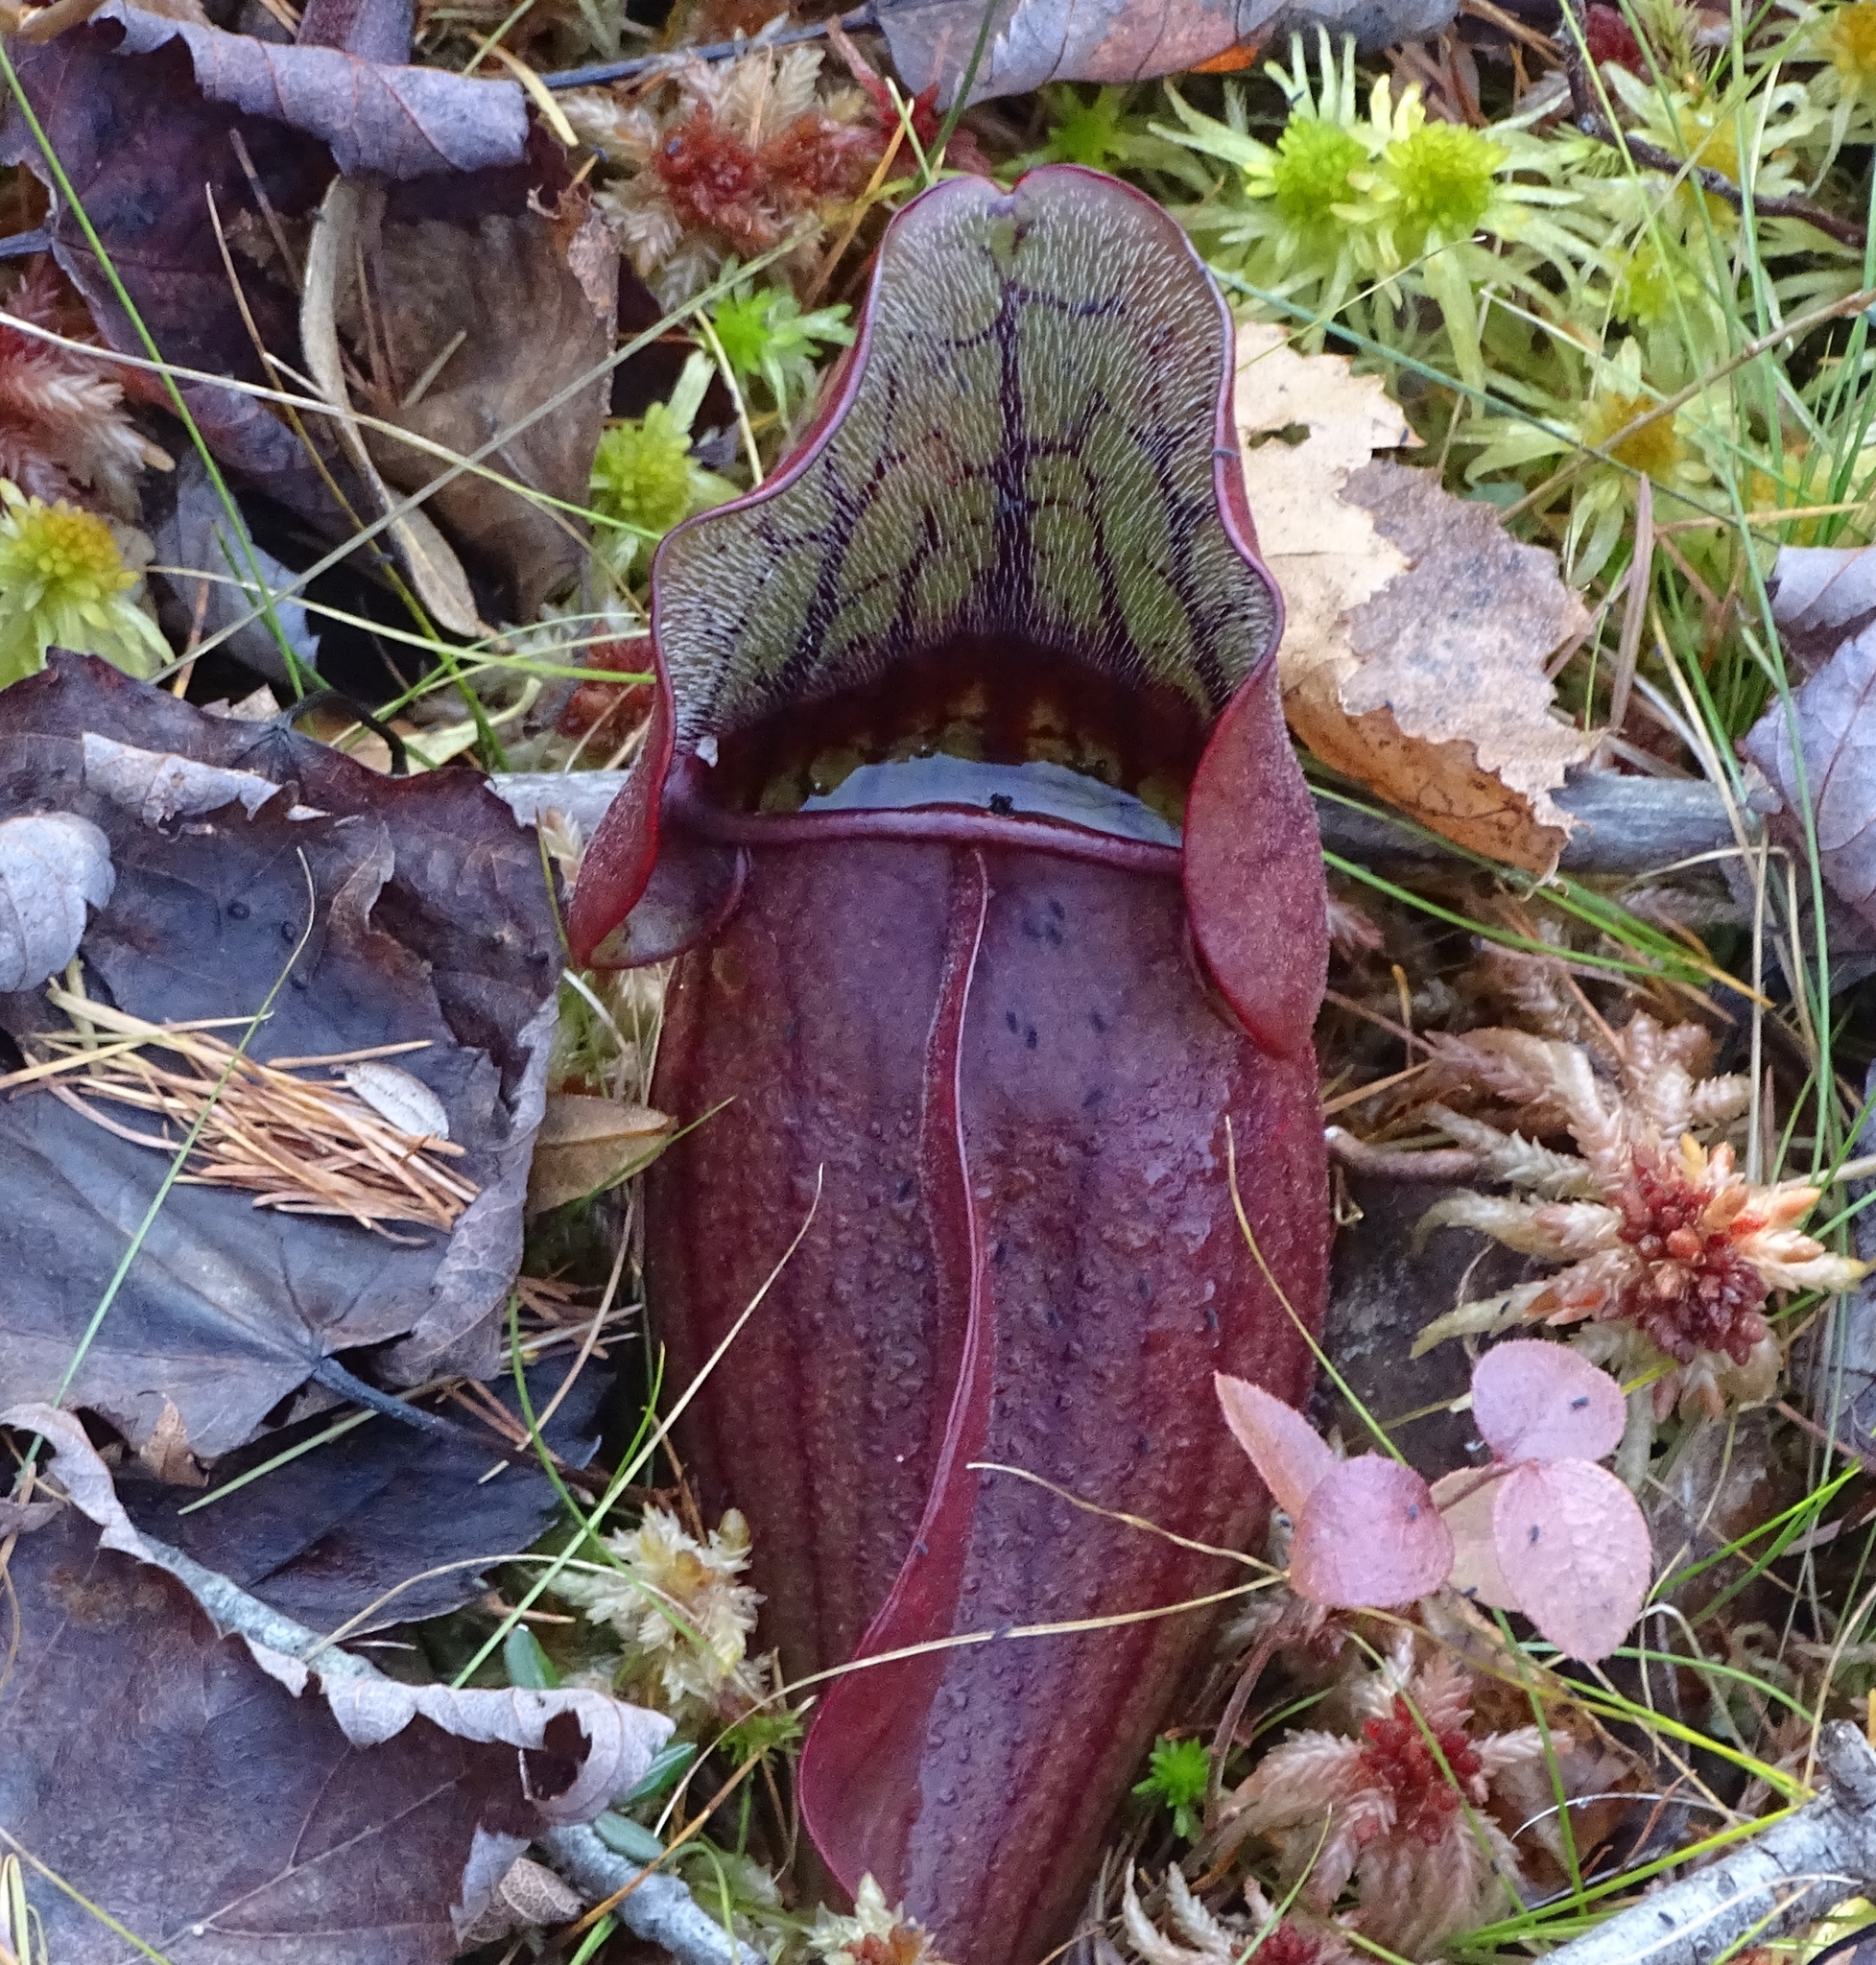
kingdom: Plantae
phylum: Tracheophyta
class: Magnoliopsida
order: Ericales
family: Sarraceniaceae
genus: Sarracenia
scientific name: Sarracenia purpurea
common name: Pitcherplant
